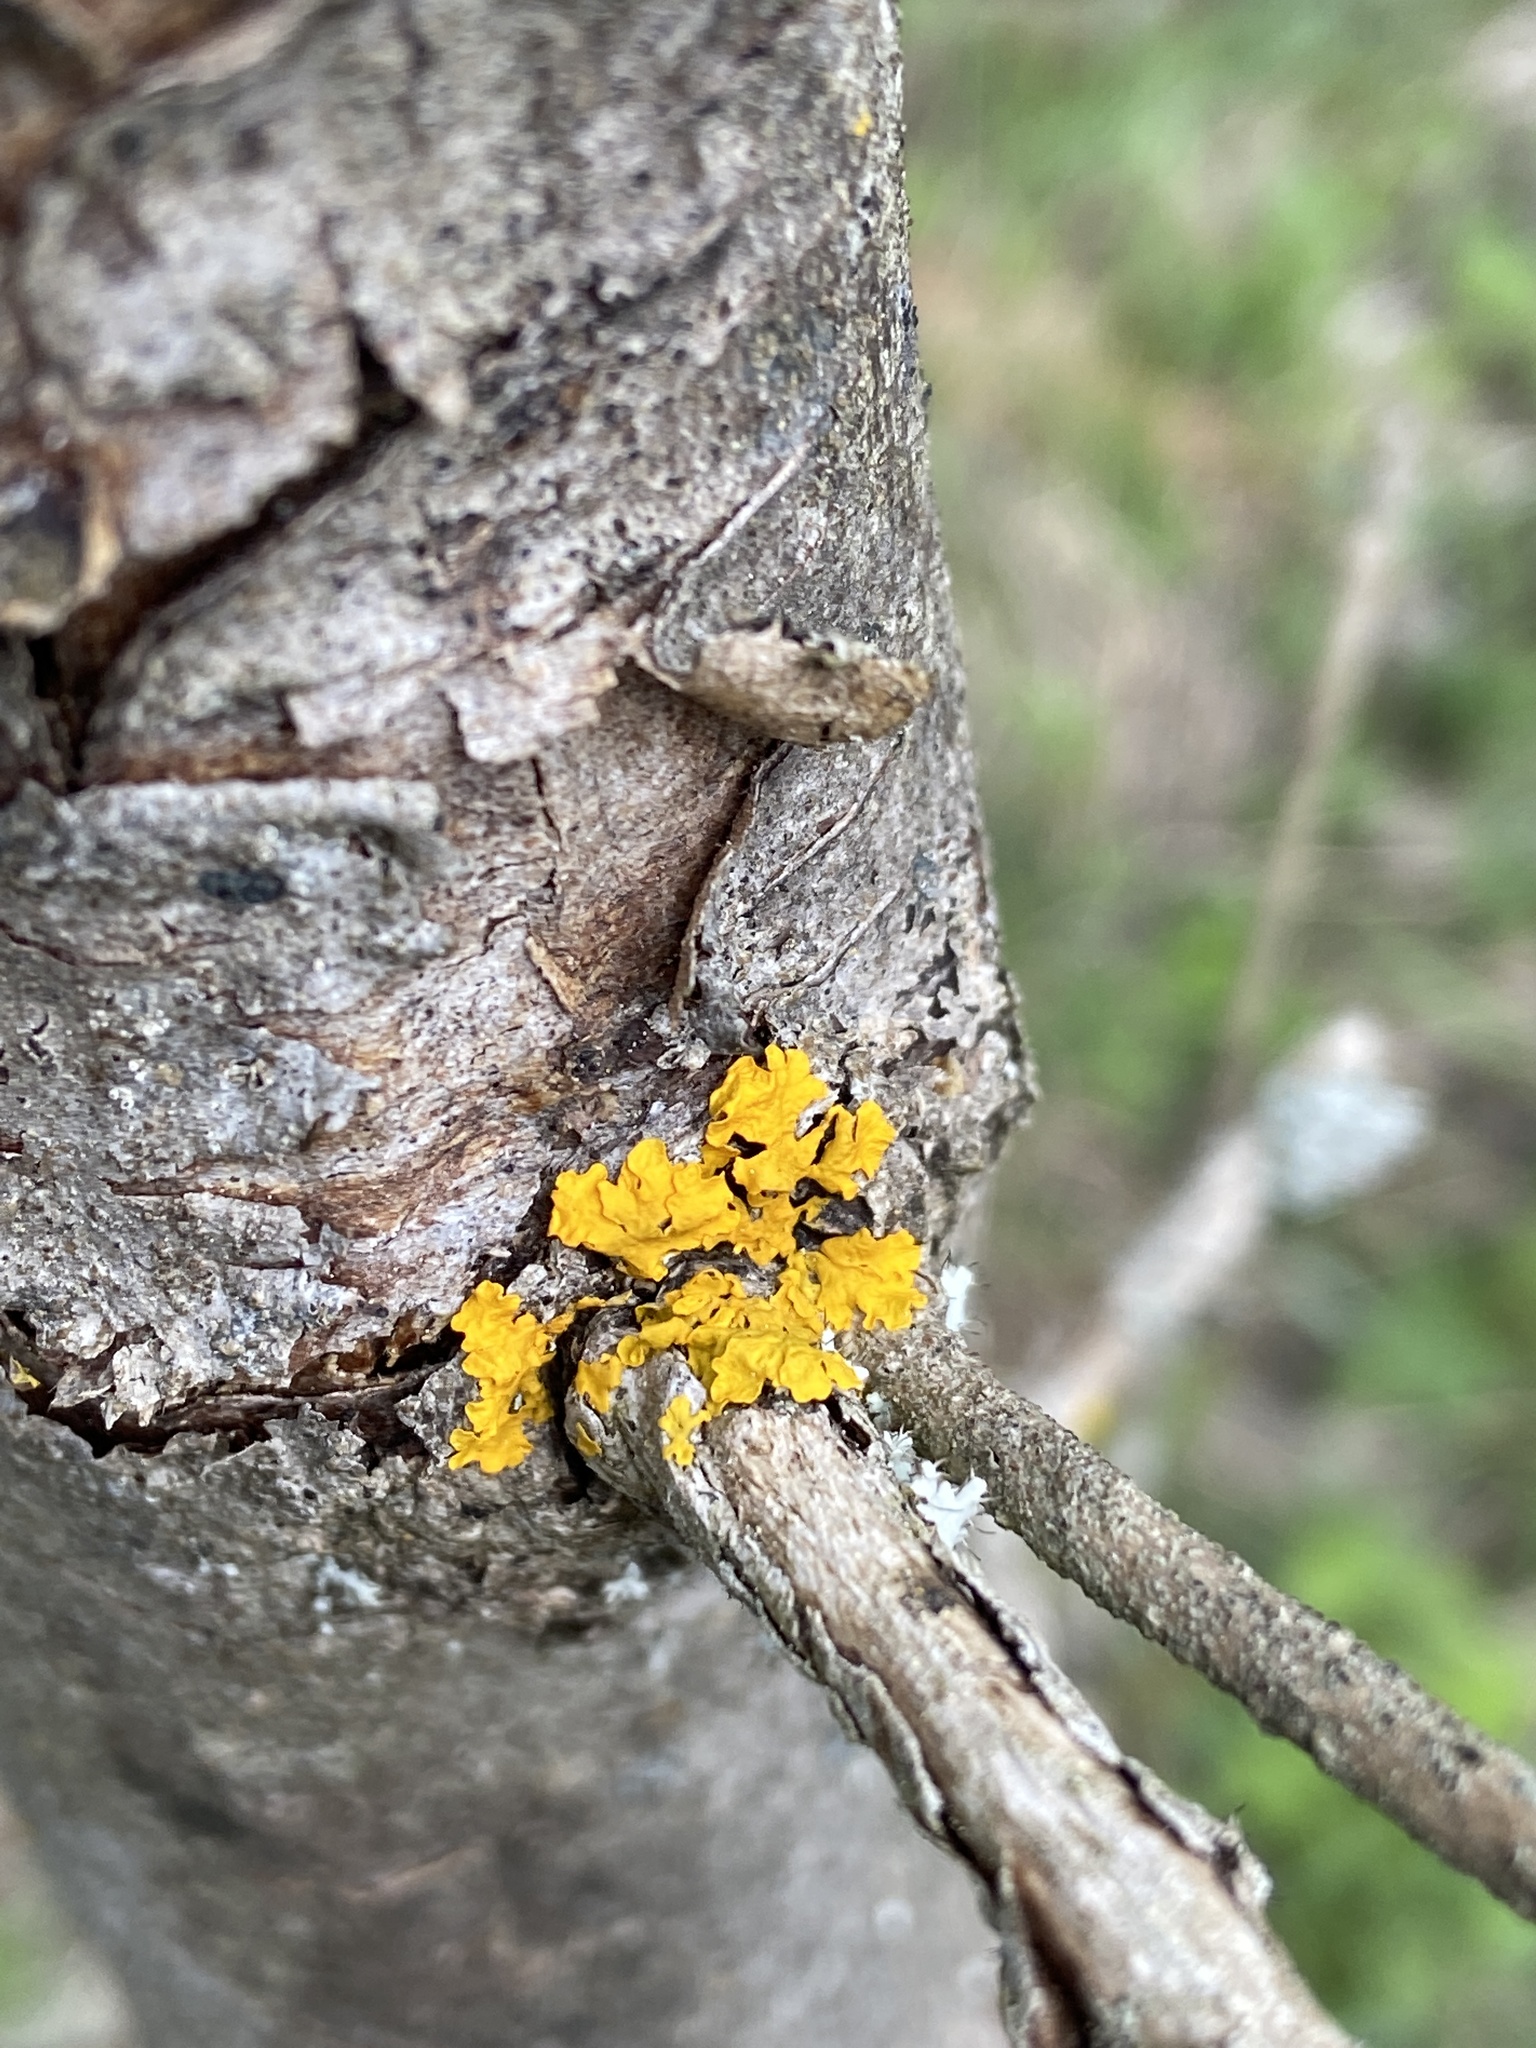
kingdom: Fungi
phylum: Ascomycota
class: Lecanoromycetes
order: Teloschistales
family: Teloschistaceae
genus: Xanthoria
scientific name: Xanthoria parietina
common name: Common orange lichen
